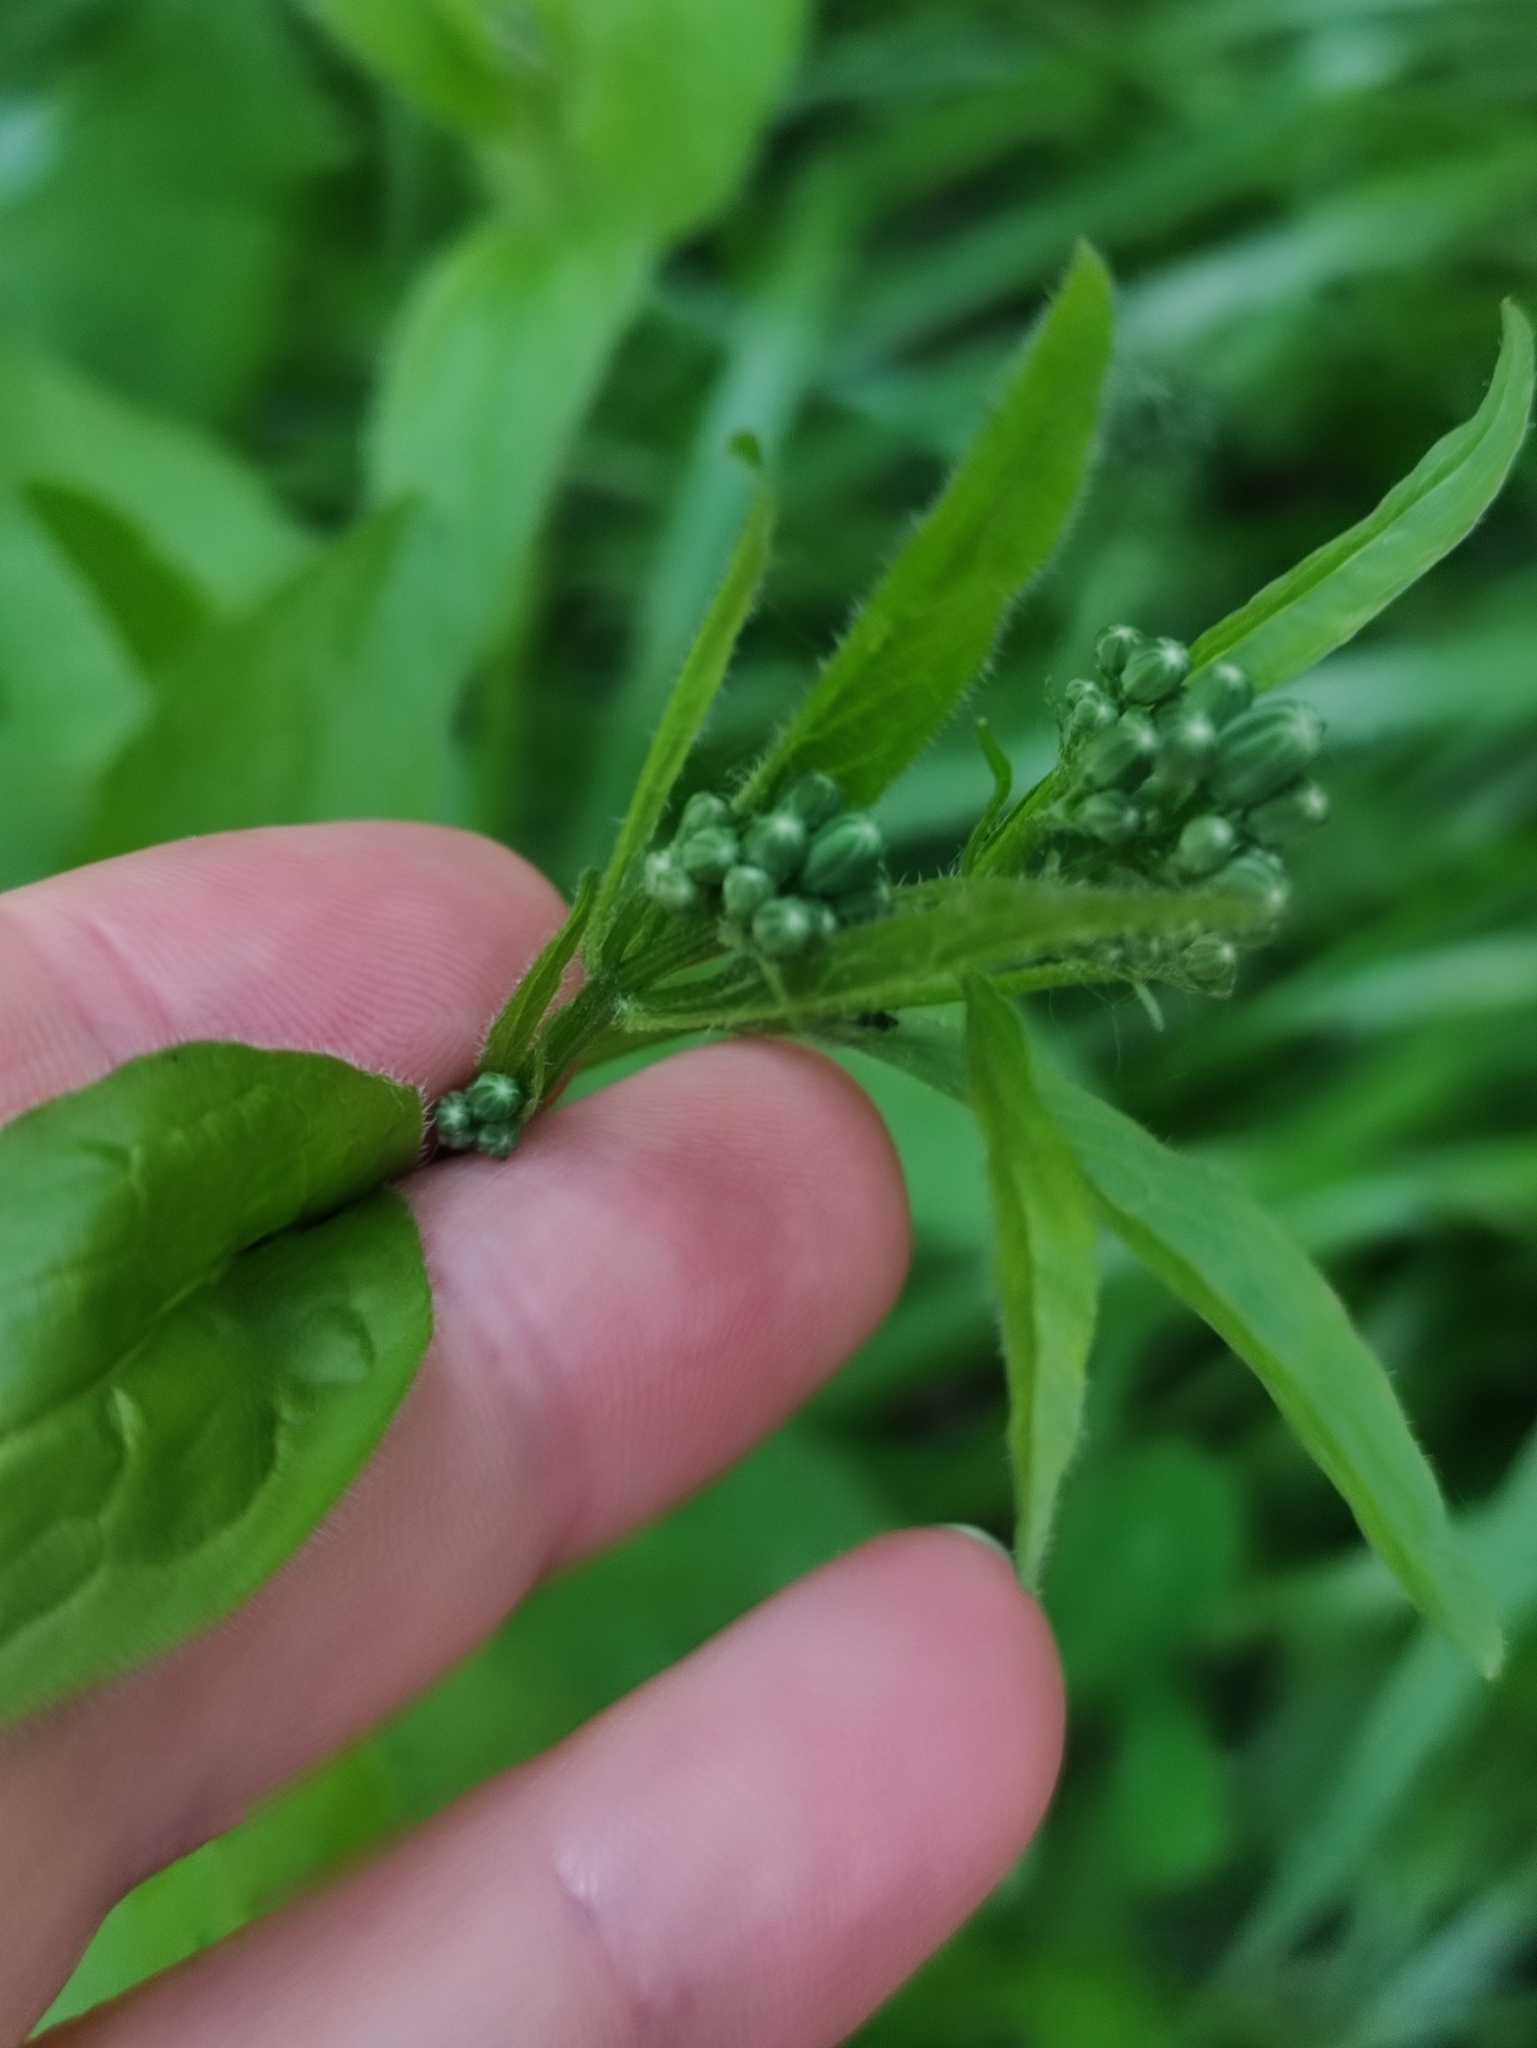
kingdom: Plantae
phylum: Tracheophyta
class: Magnoliopsida
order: Asterales
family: Asteraceae
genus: Lapsana
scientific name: Lapsana communis
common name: Nipplewort
